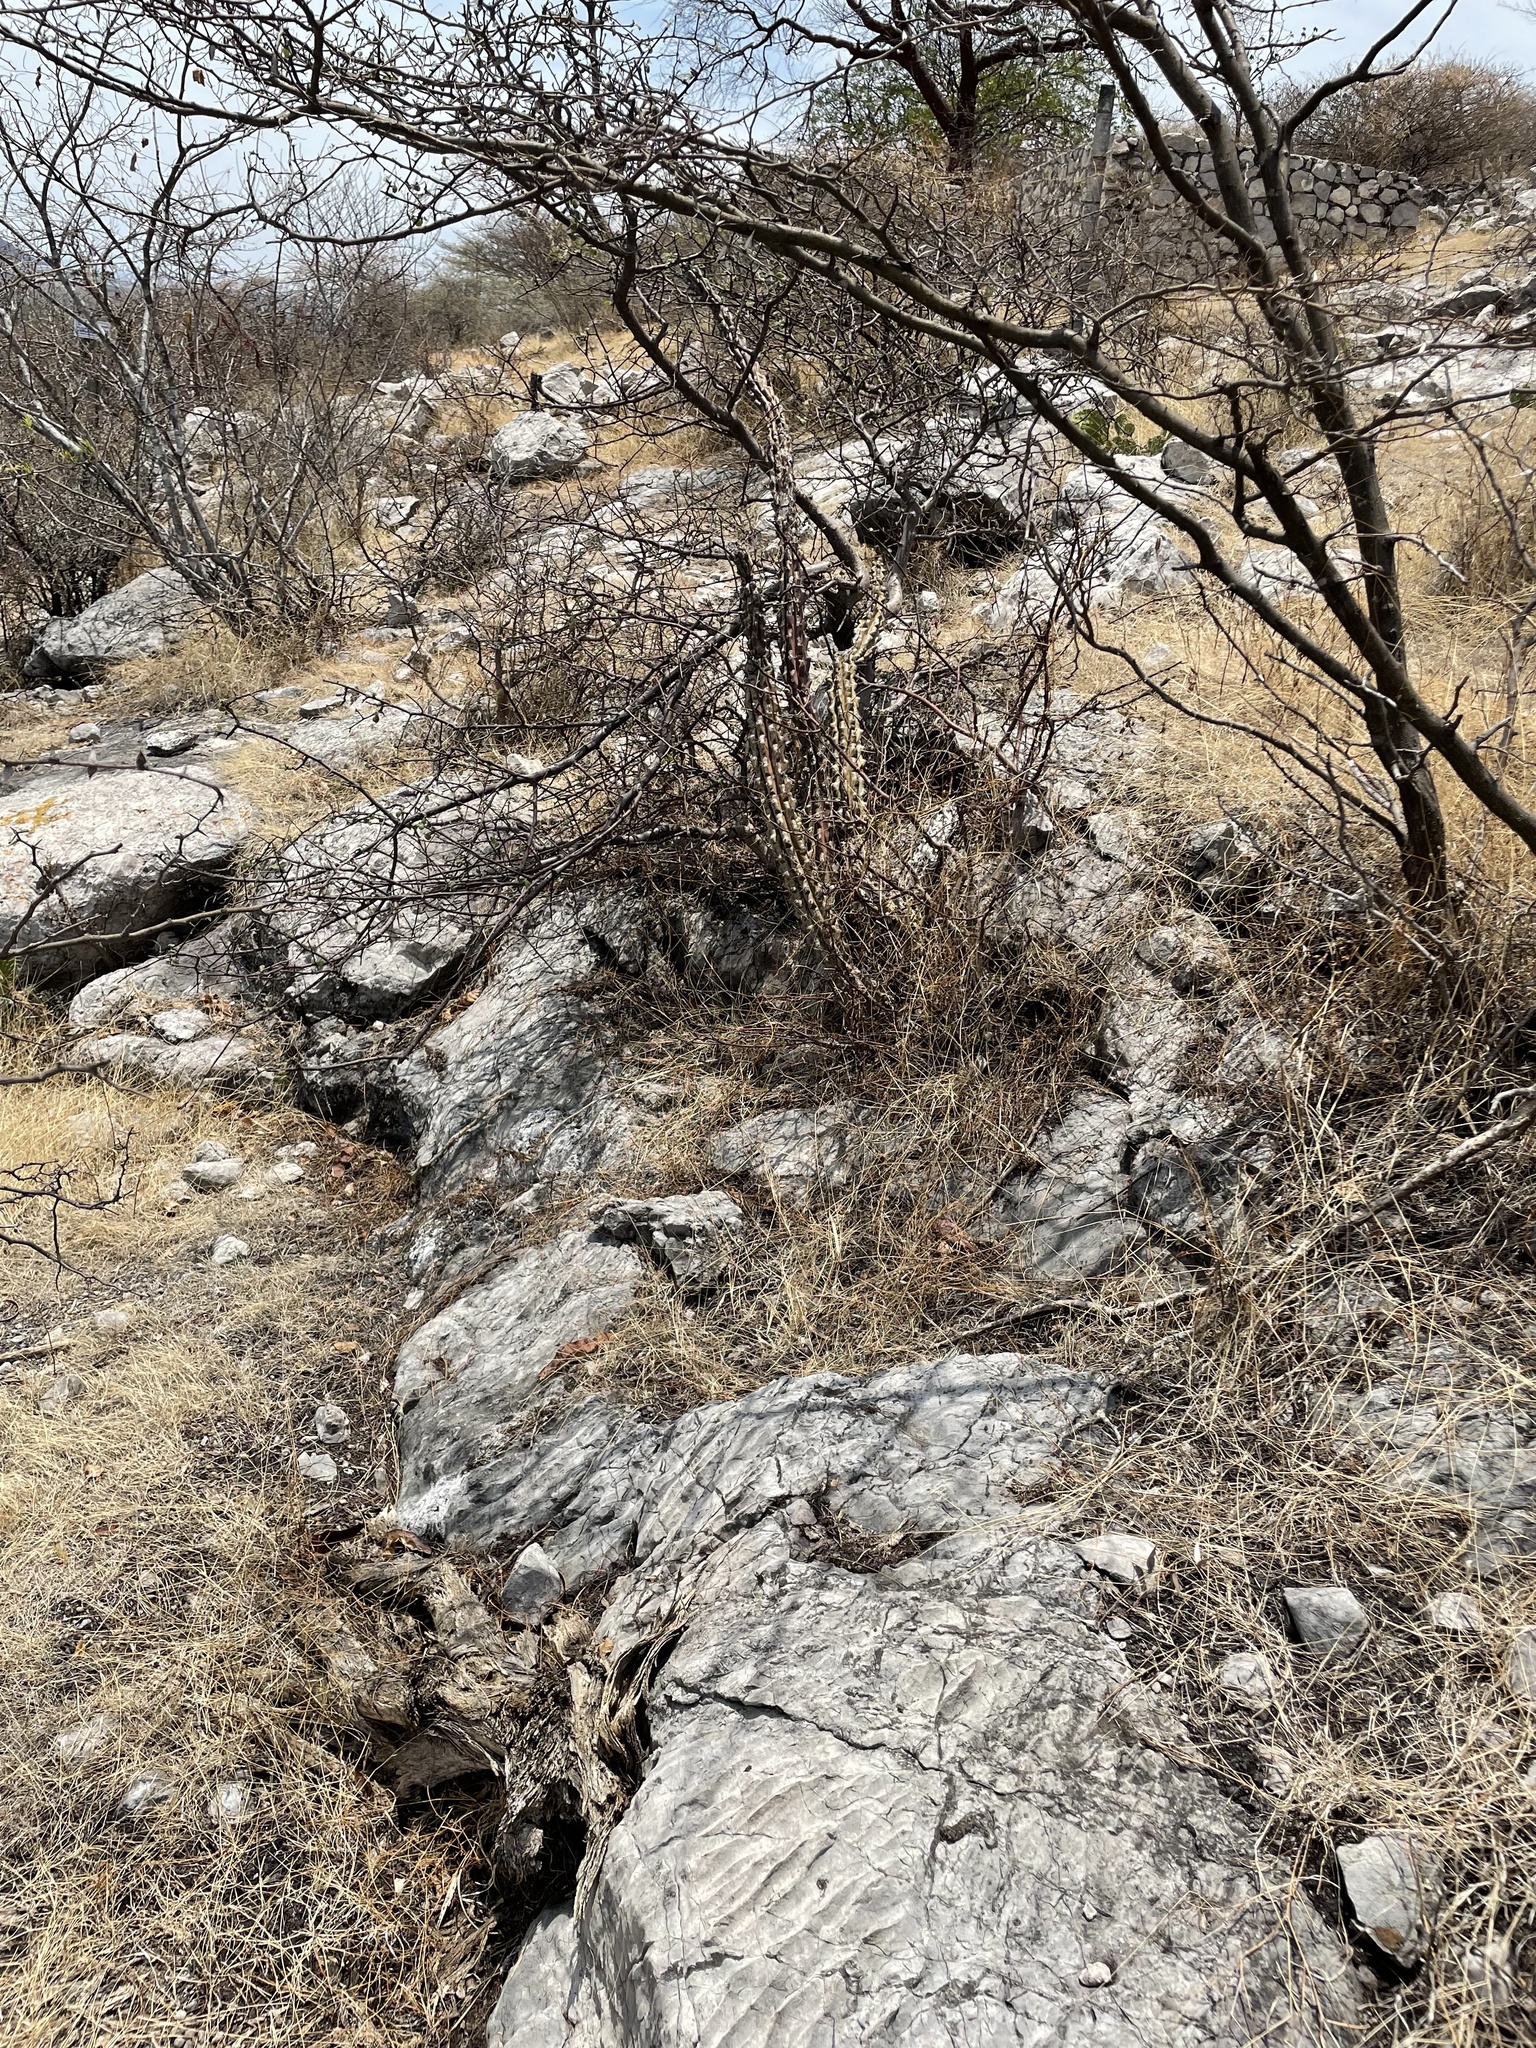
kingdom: Plantae
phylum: Tracheophyta
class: Magnoliopsida
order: Caryophyllales
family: Cactaceae
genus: Stenocereus
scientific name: Stenocereus beneckei
